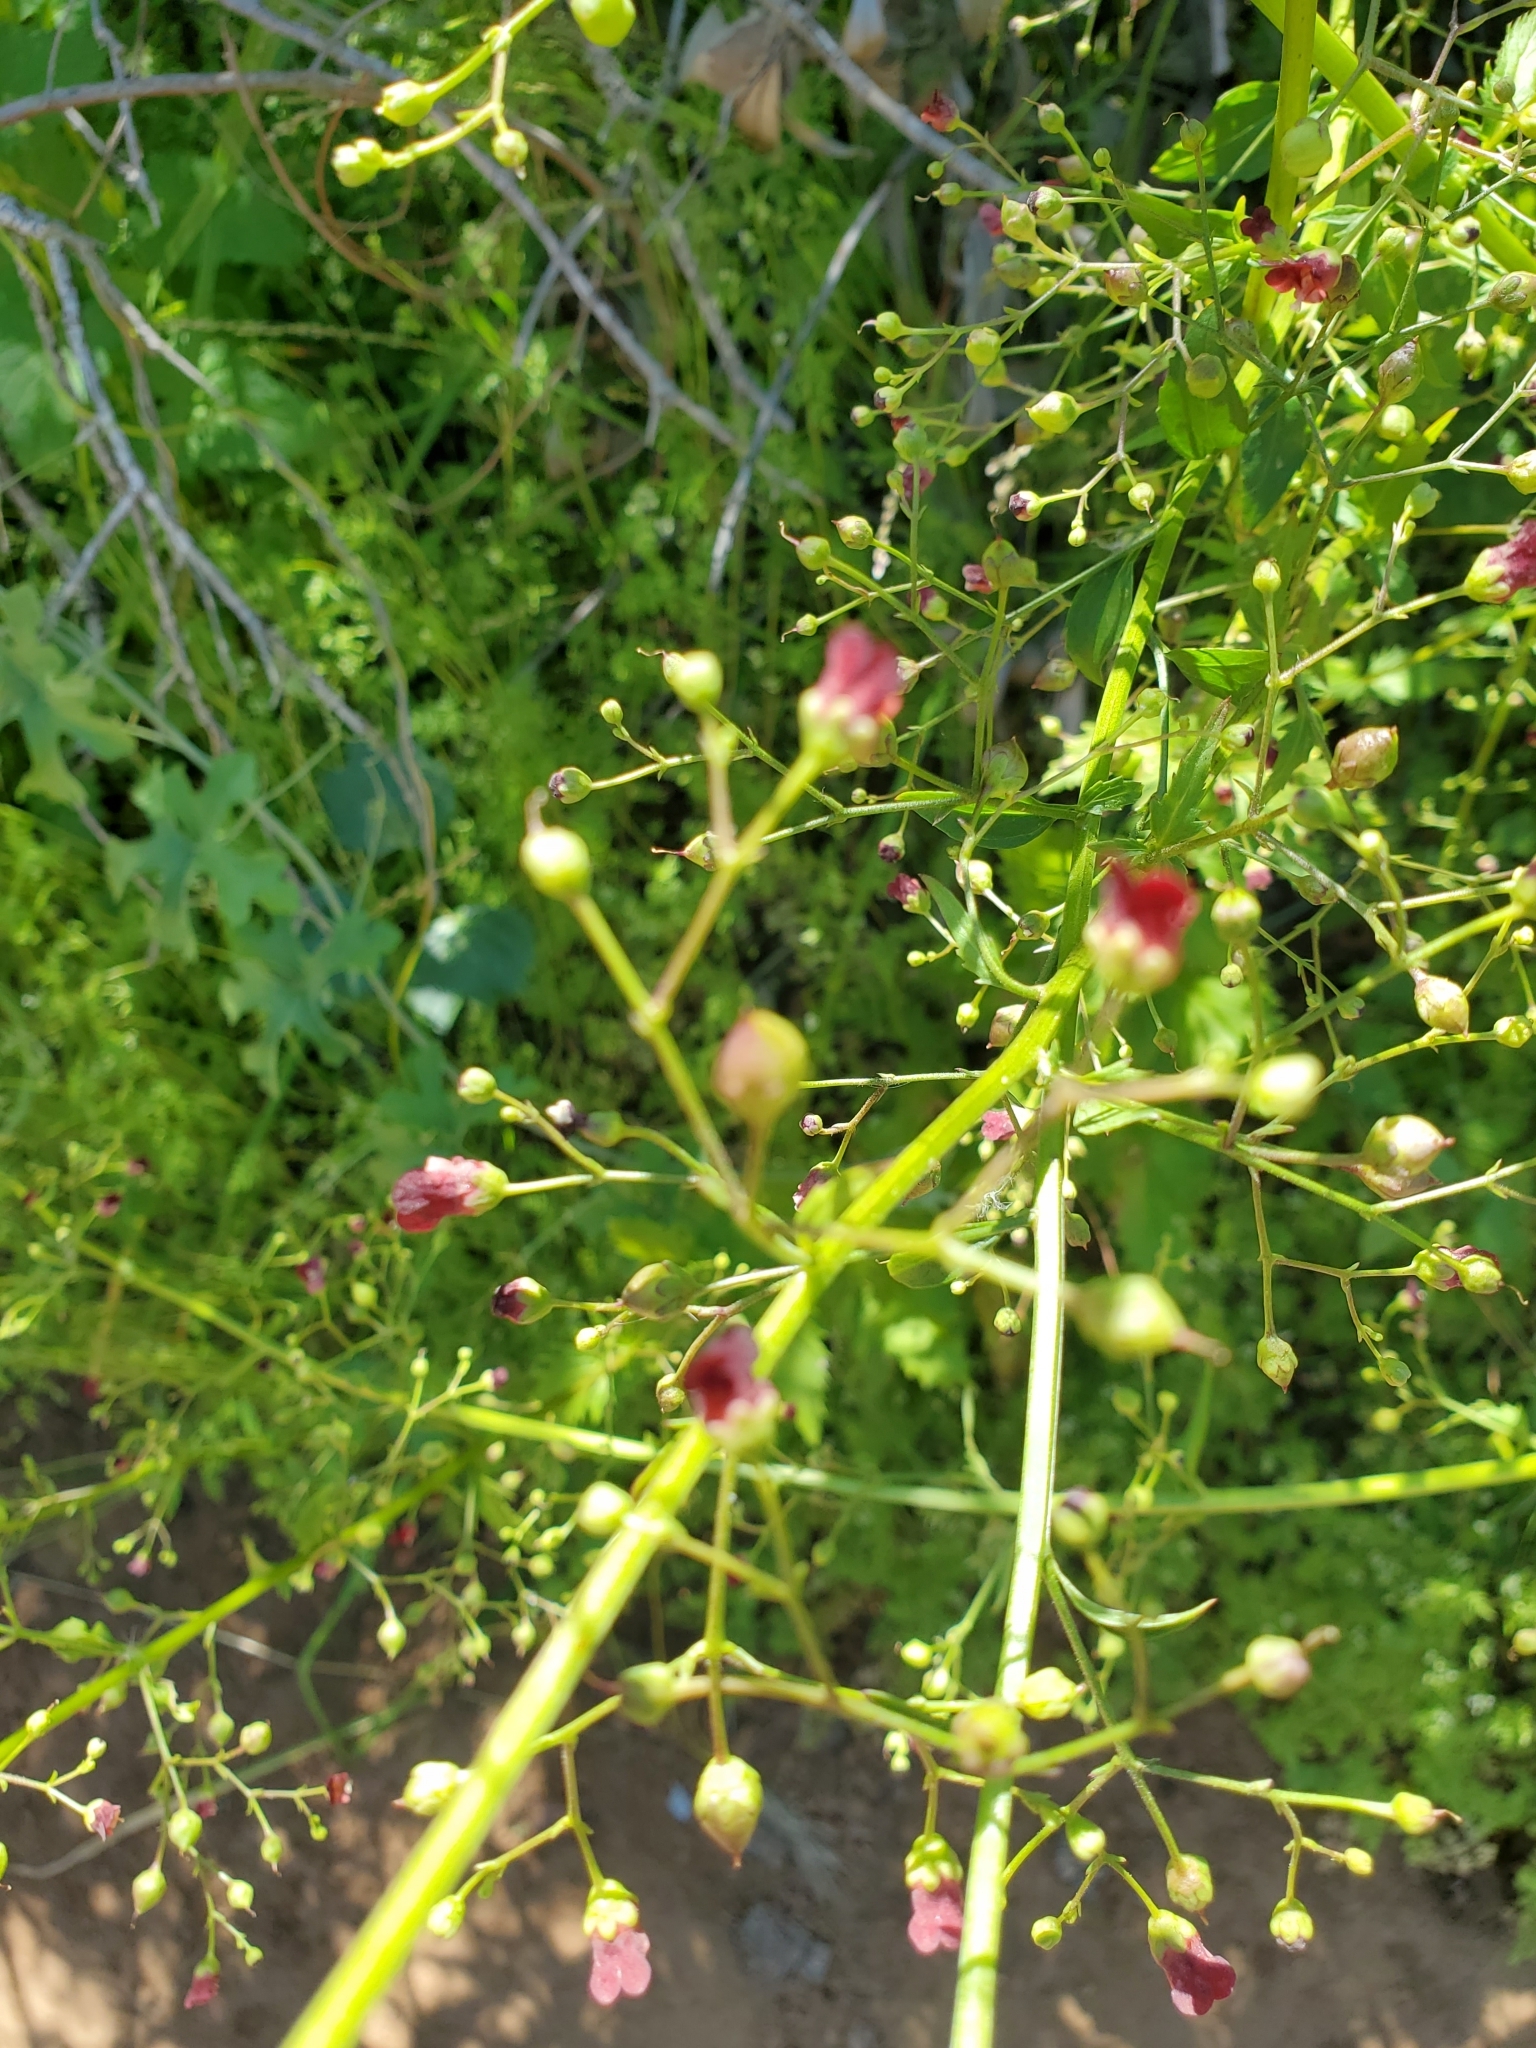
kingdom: Plantae
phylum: Tracheophyta
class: Magnoliopsida
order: Lamiales
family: Scrophulariaceae
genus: Scrophularia
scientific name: Scrophularia californica
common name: California figwort
